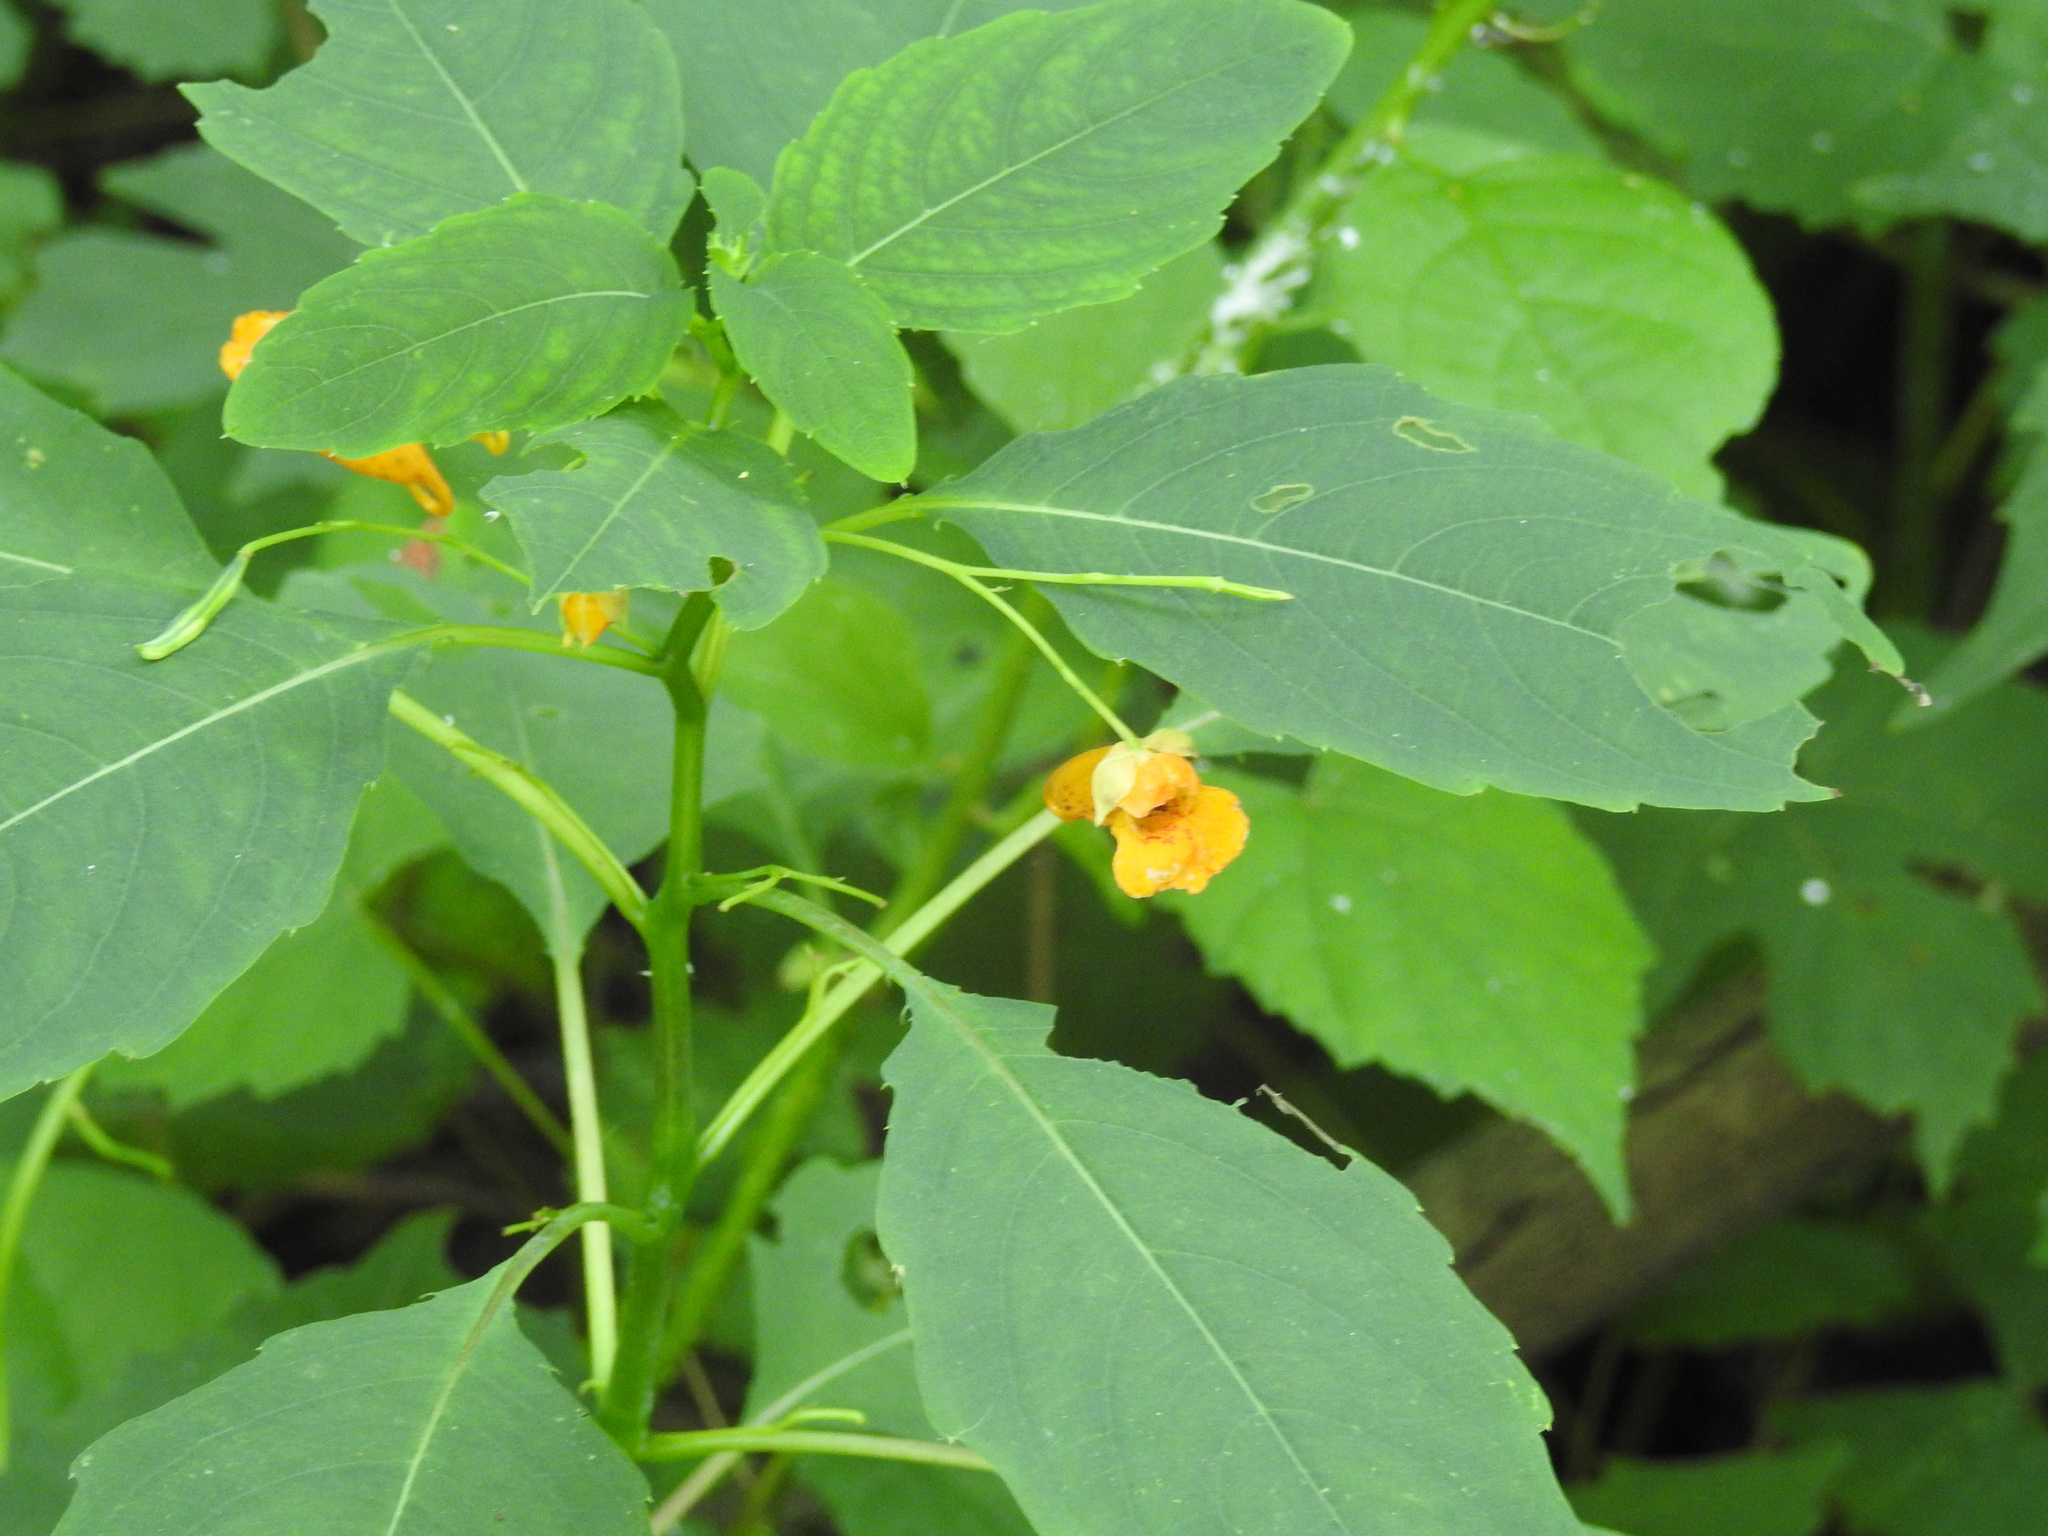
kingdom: Plantae
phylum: Tracheophyta
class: Magnoliopsida
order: Ericales
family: Balsaminaceae
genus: Impatiens
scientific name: Impatiens capensis
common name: Orange balsam
